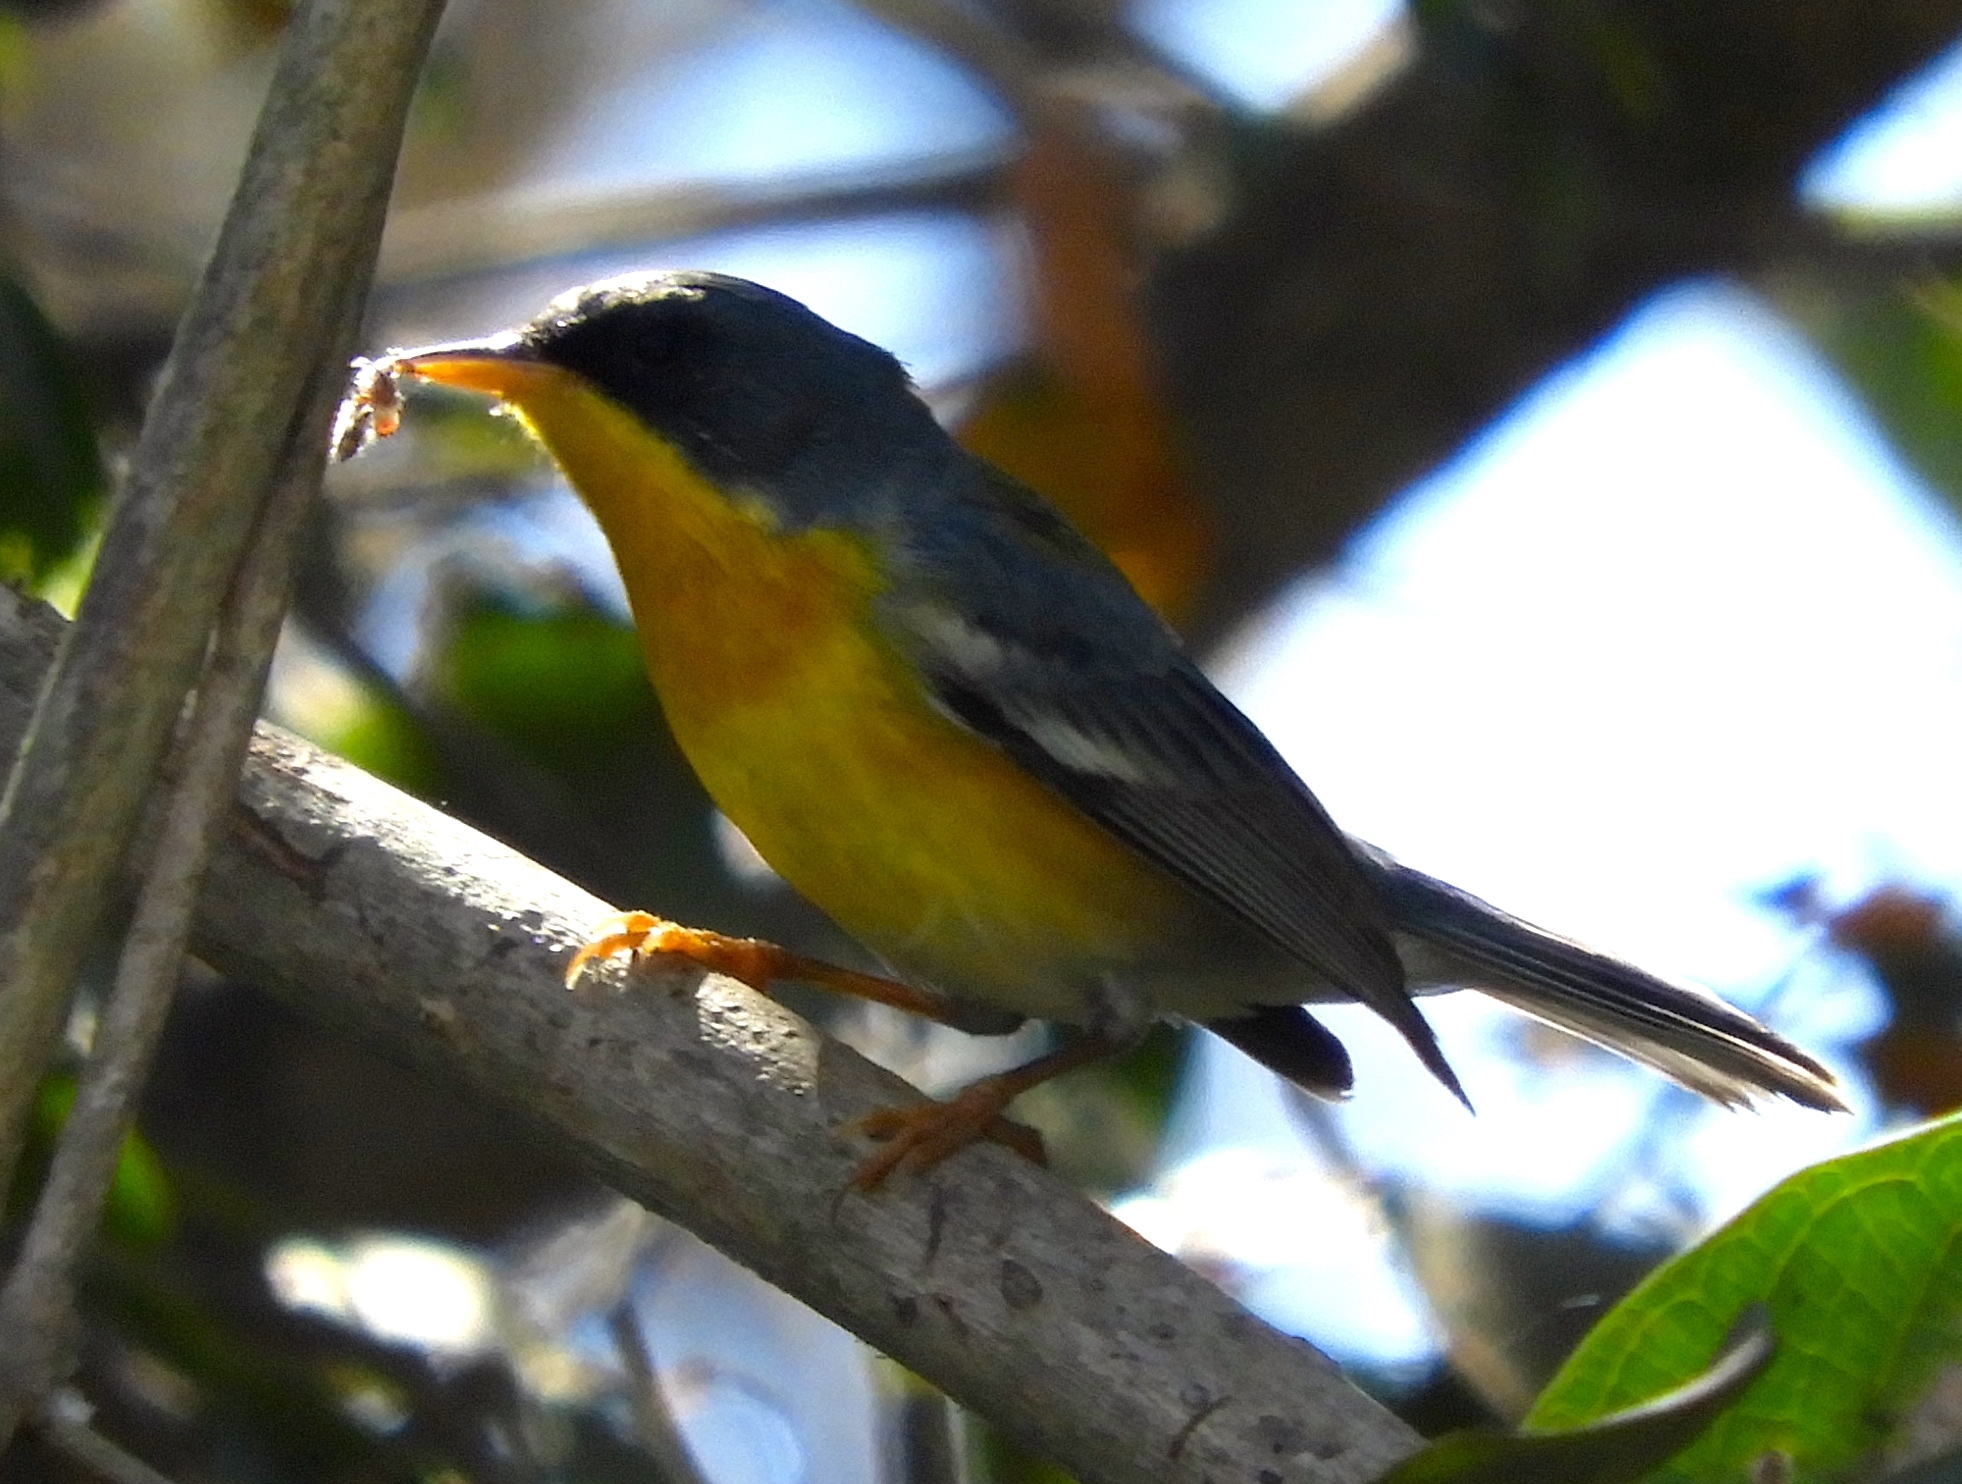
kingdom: Animalia
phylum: Chordata
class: Aves
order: Passeriformes
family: Parulidae
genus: Setophaga
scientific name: Setophaga pitiayumi
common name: Tropical parula
